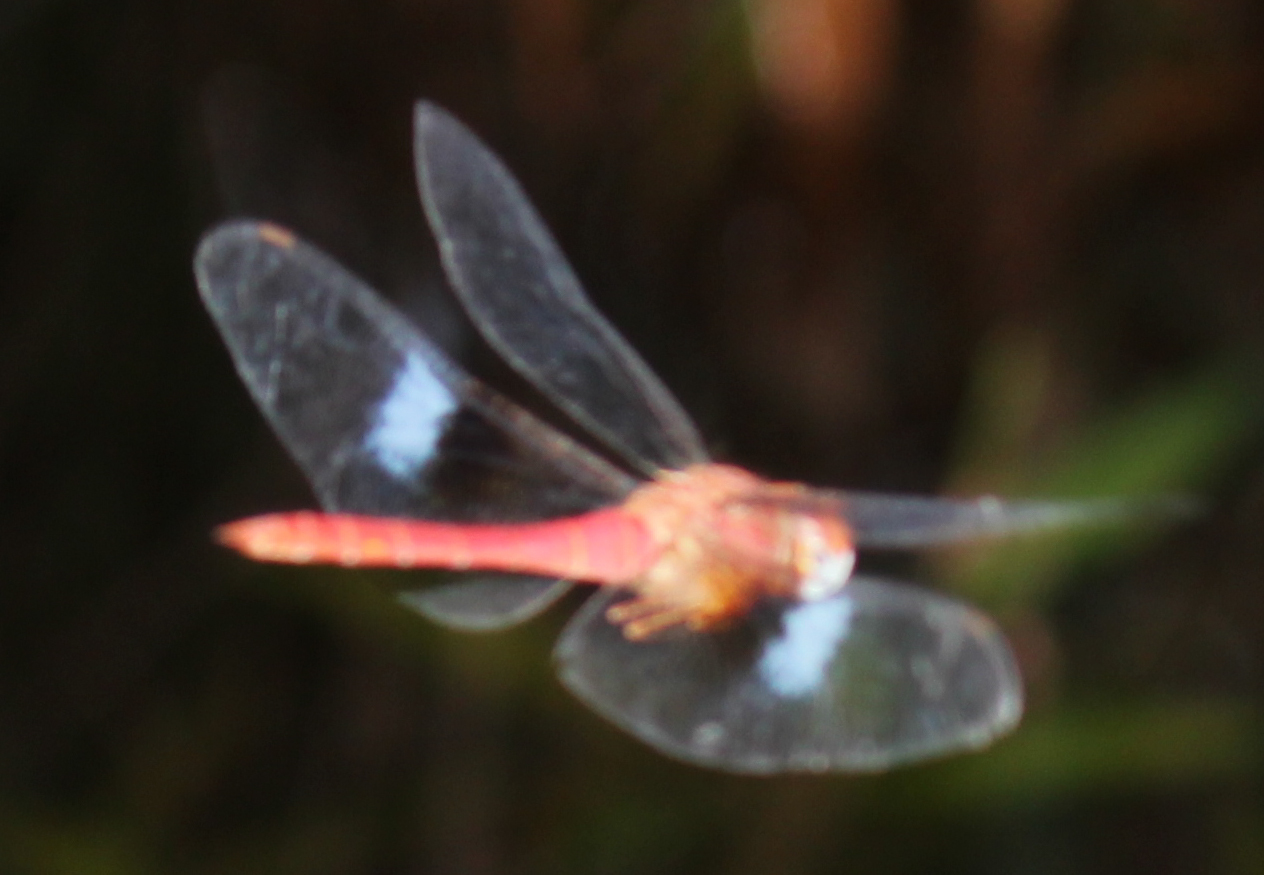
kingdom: Animalia
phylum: Arthropoda
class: Insecta
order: Odonata
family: Libellulidae
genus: Tholymis
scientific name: Tholymis tillarga
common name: Coral-tailed cloud wing
